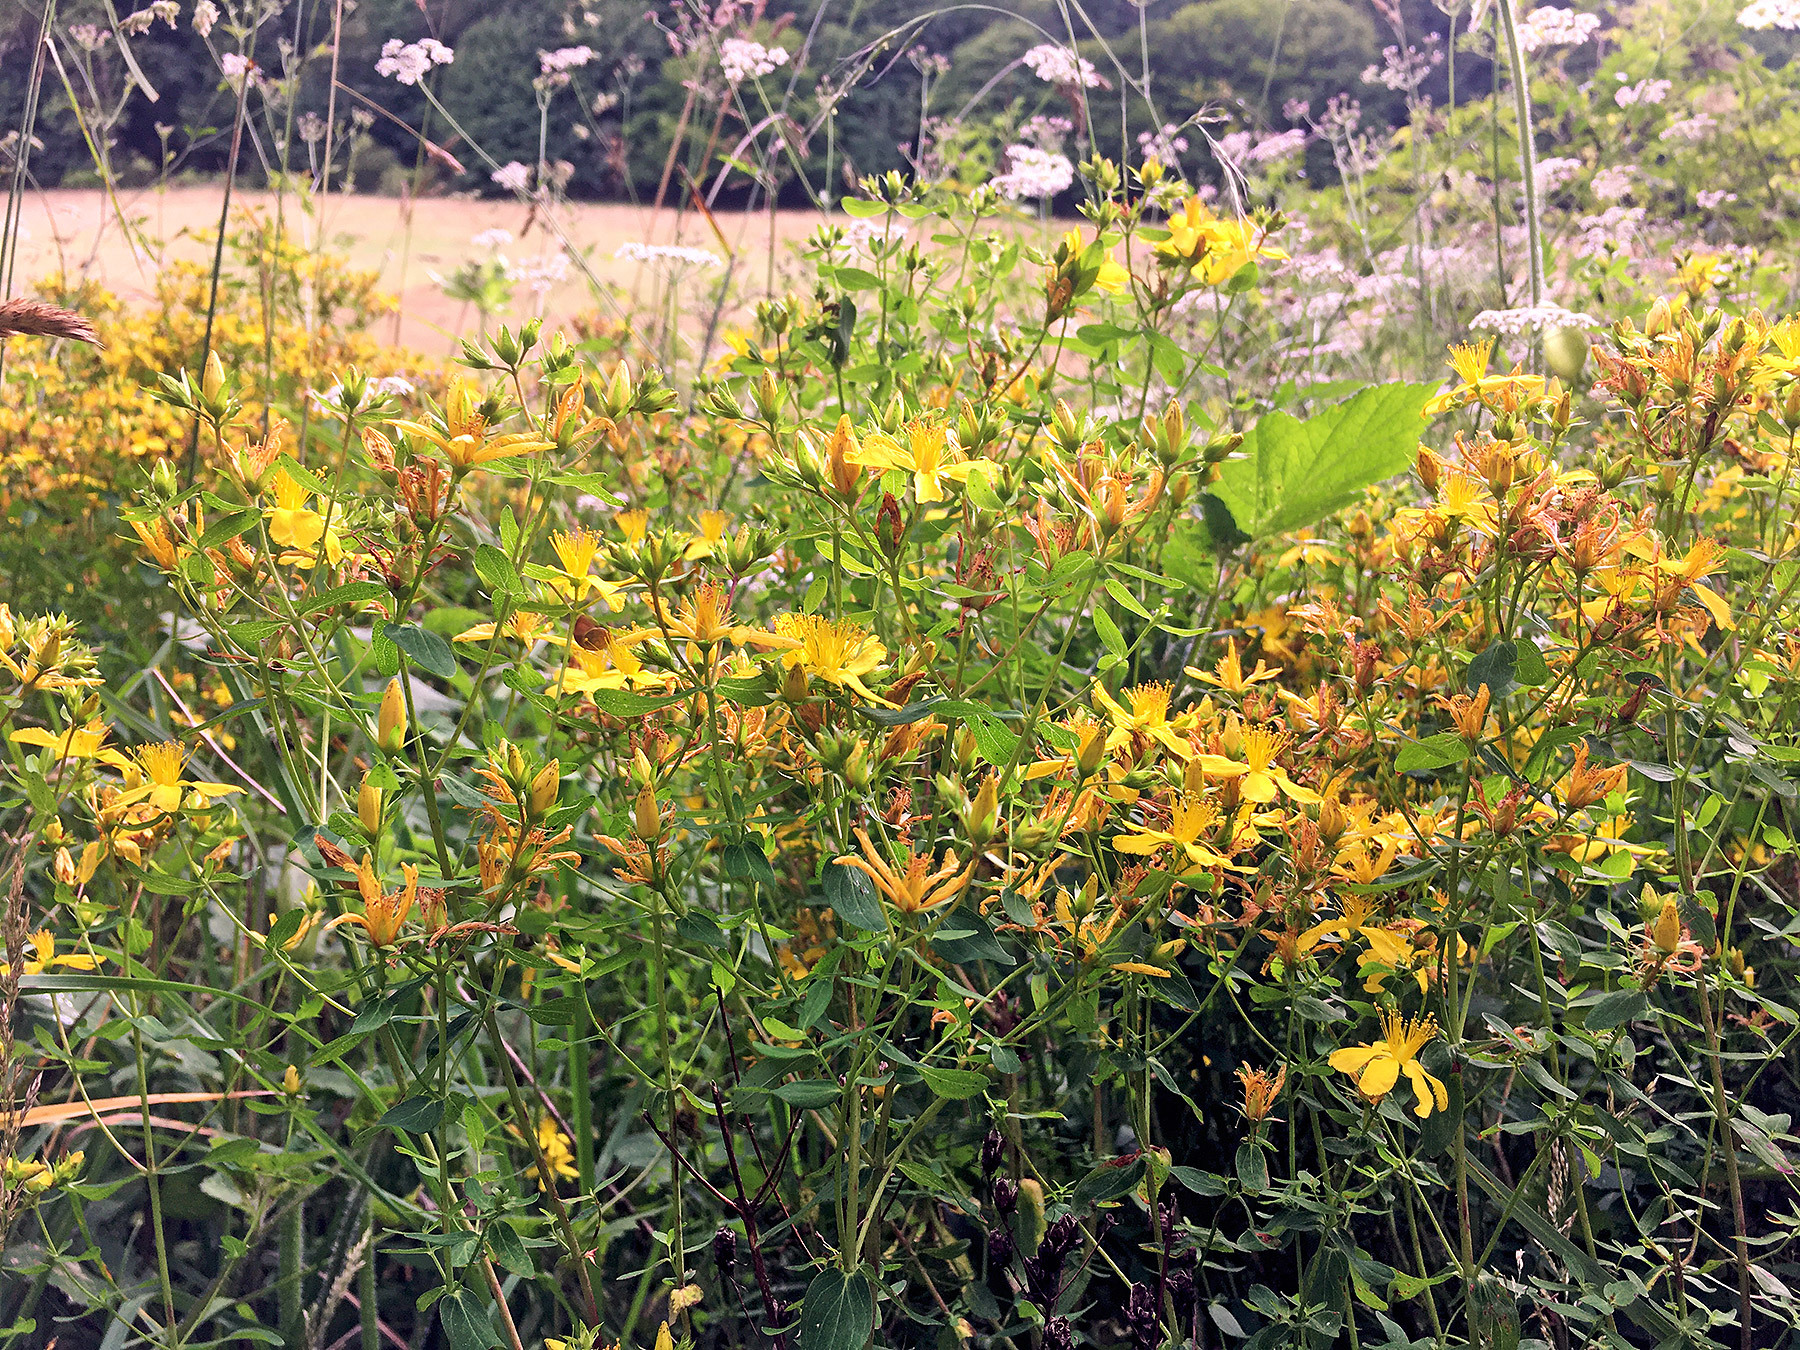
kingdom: Plantae
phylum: Tracheophyta
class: Magnoliopsida
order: Malpighiales
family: Hypericaceae
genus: Hypericum
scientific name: Hypericum perforatum
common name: Common st. johnswort
